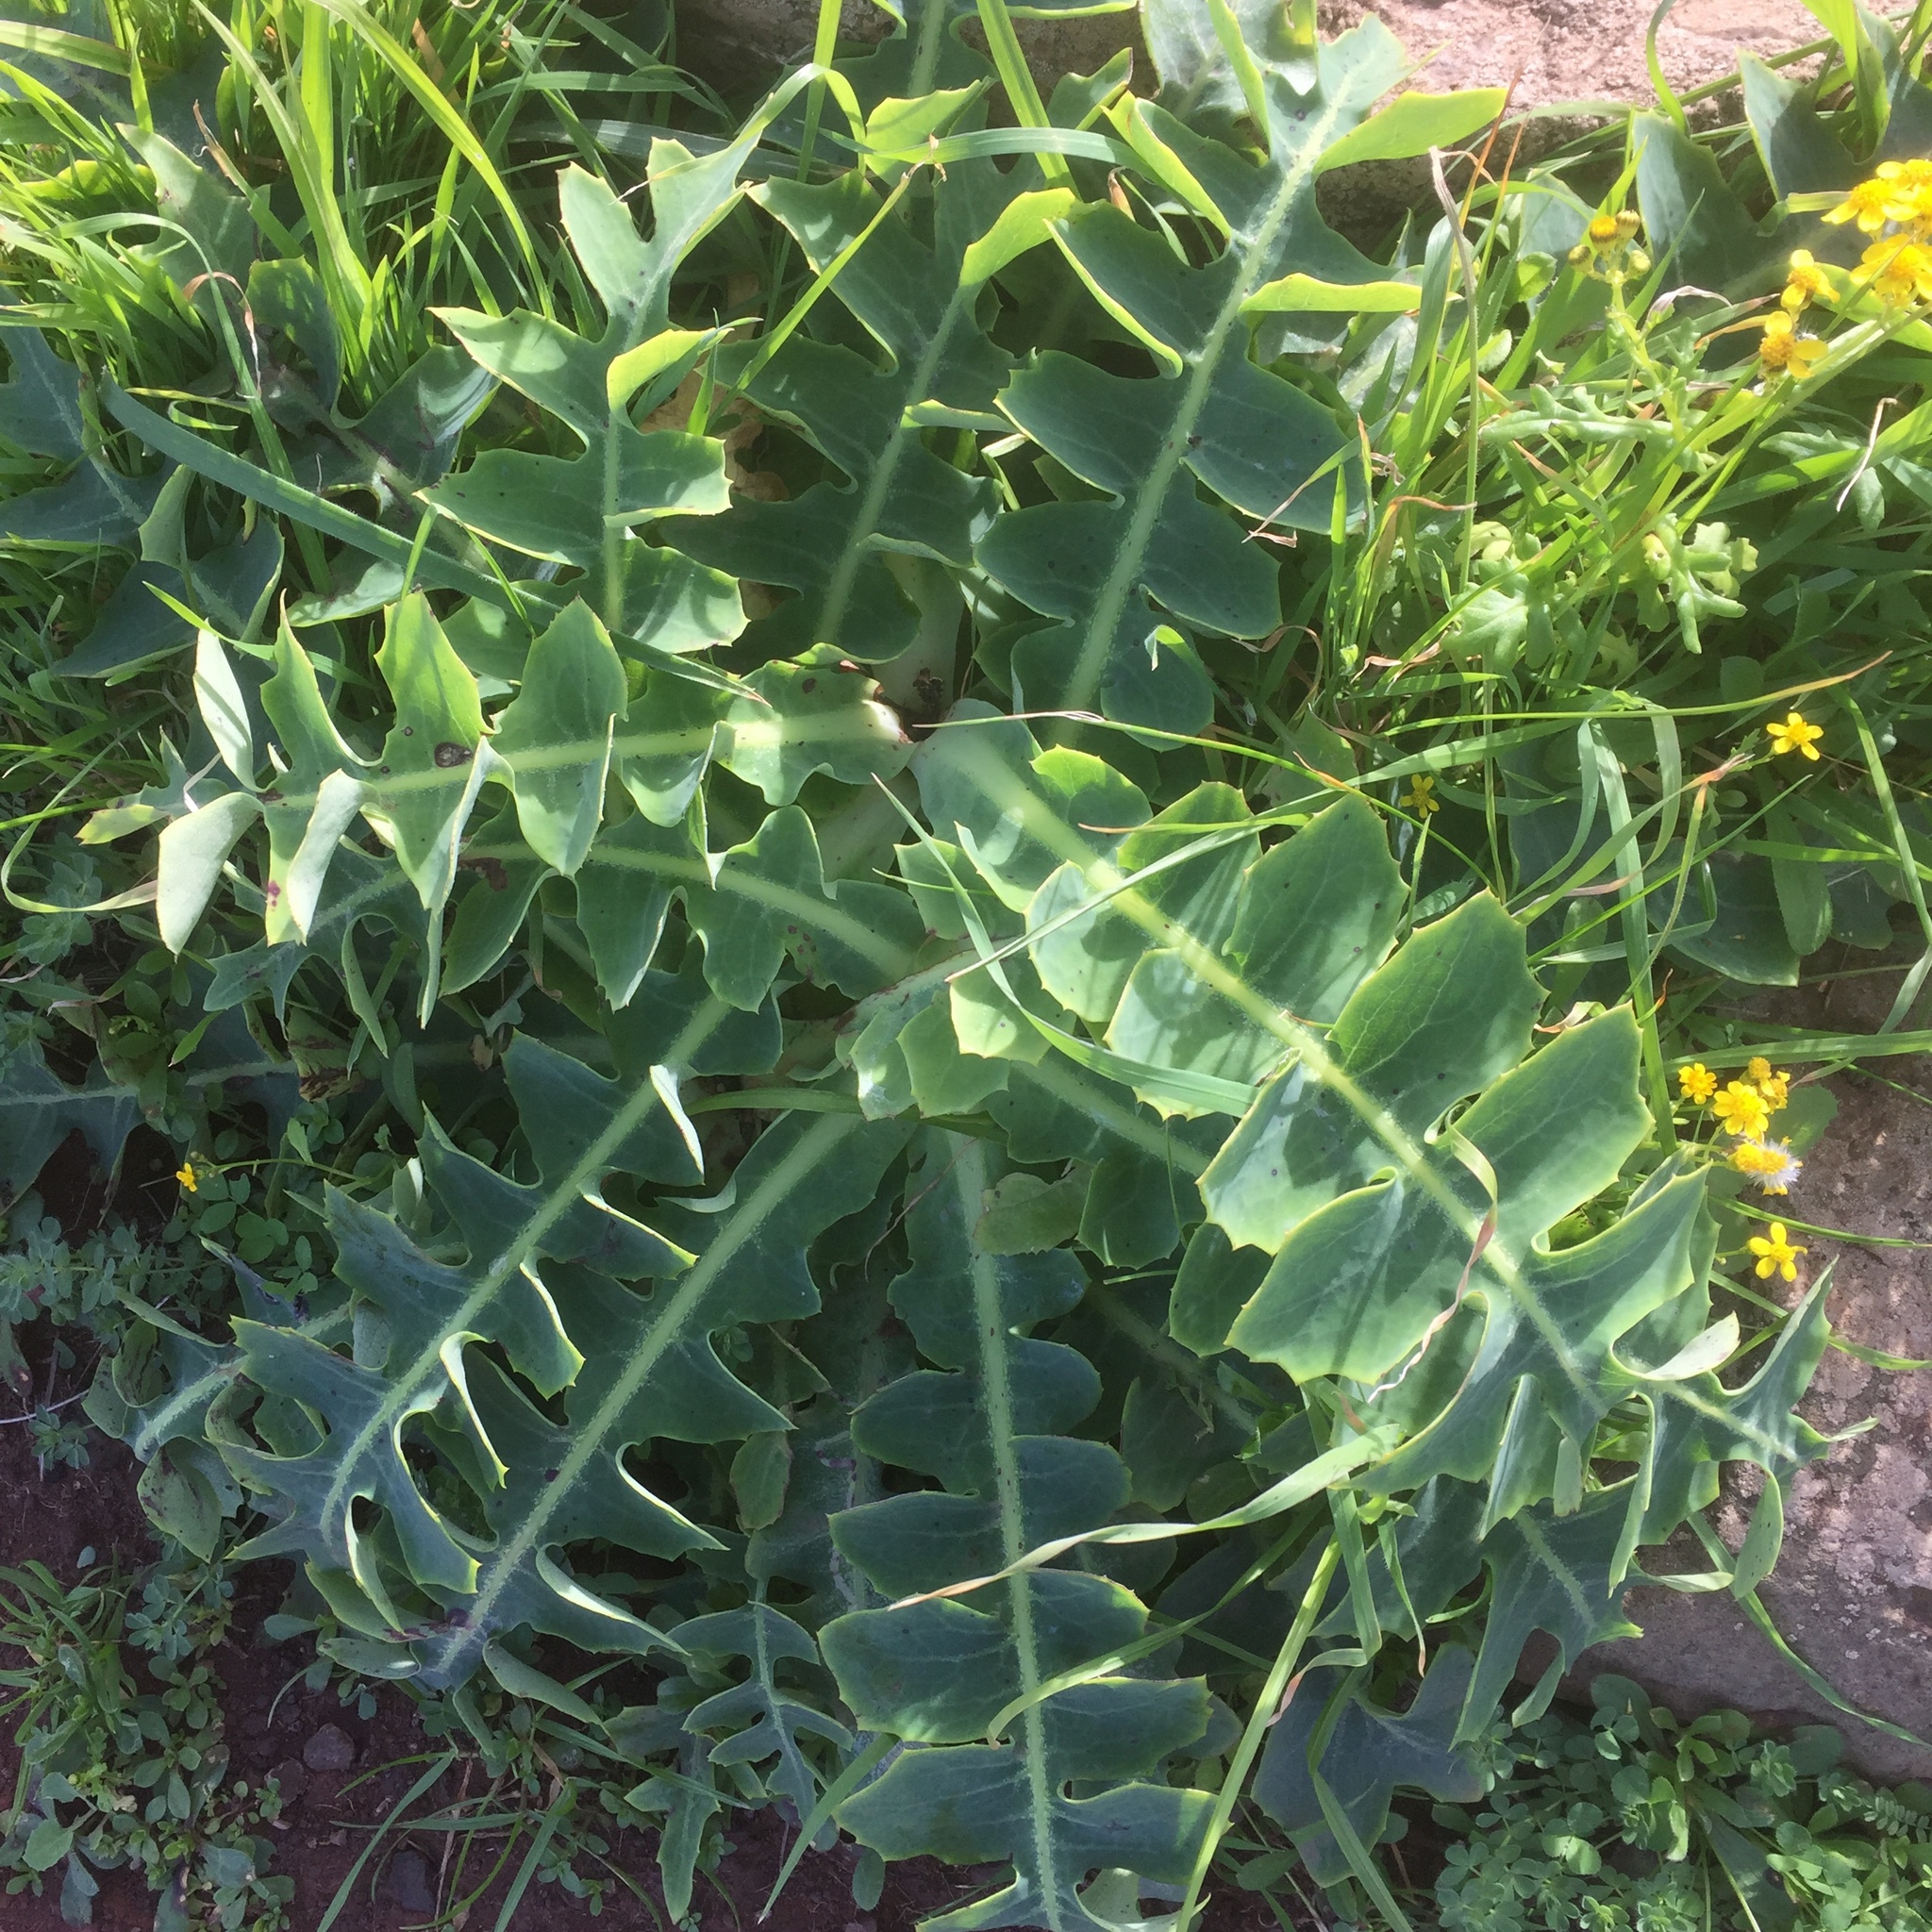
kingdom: Plantae
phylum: Tracheophyta
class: Magnoliopsida
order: Asterales
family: Asteraceae
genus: Sonchus
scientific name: Sonchus latifolius
